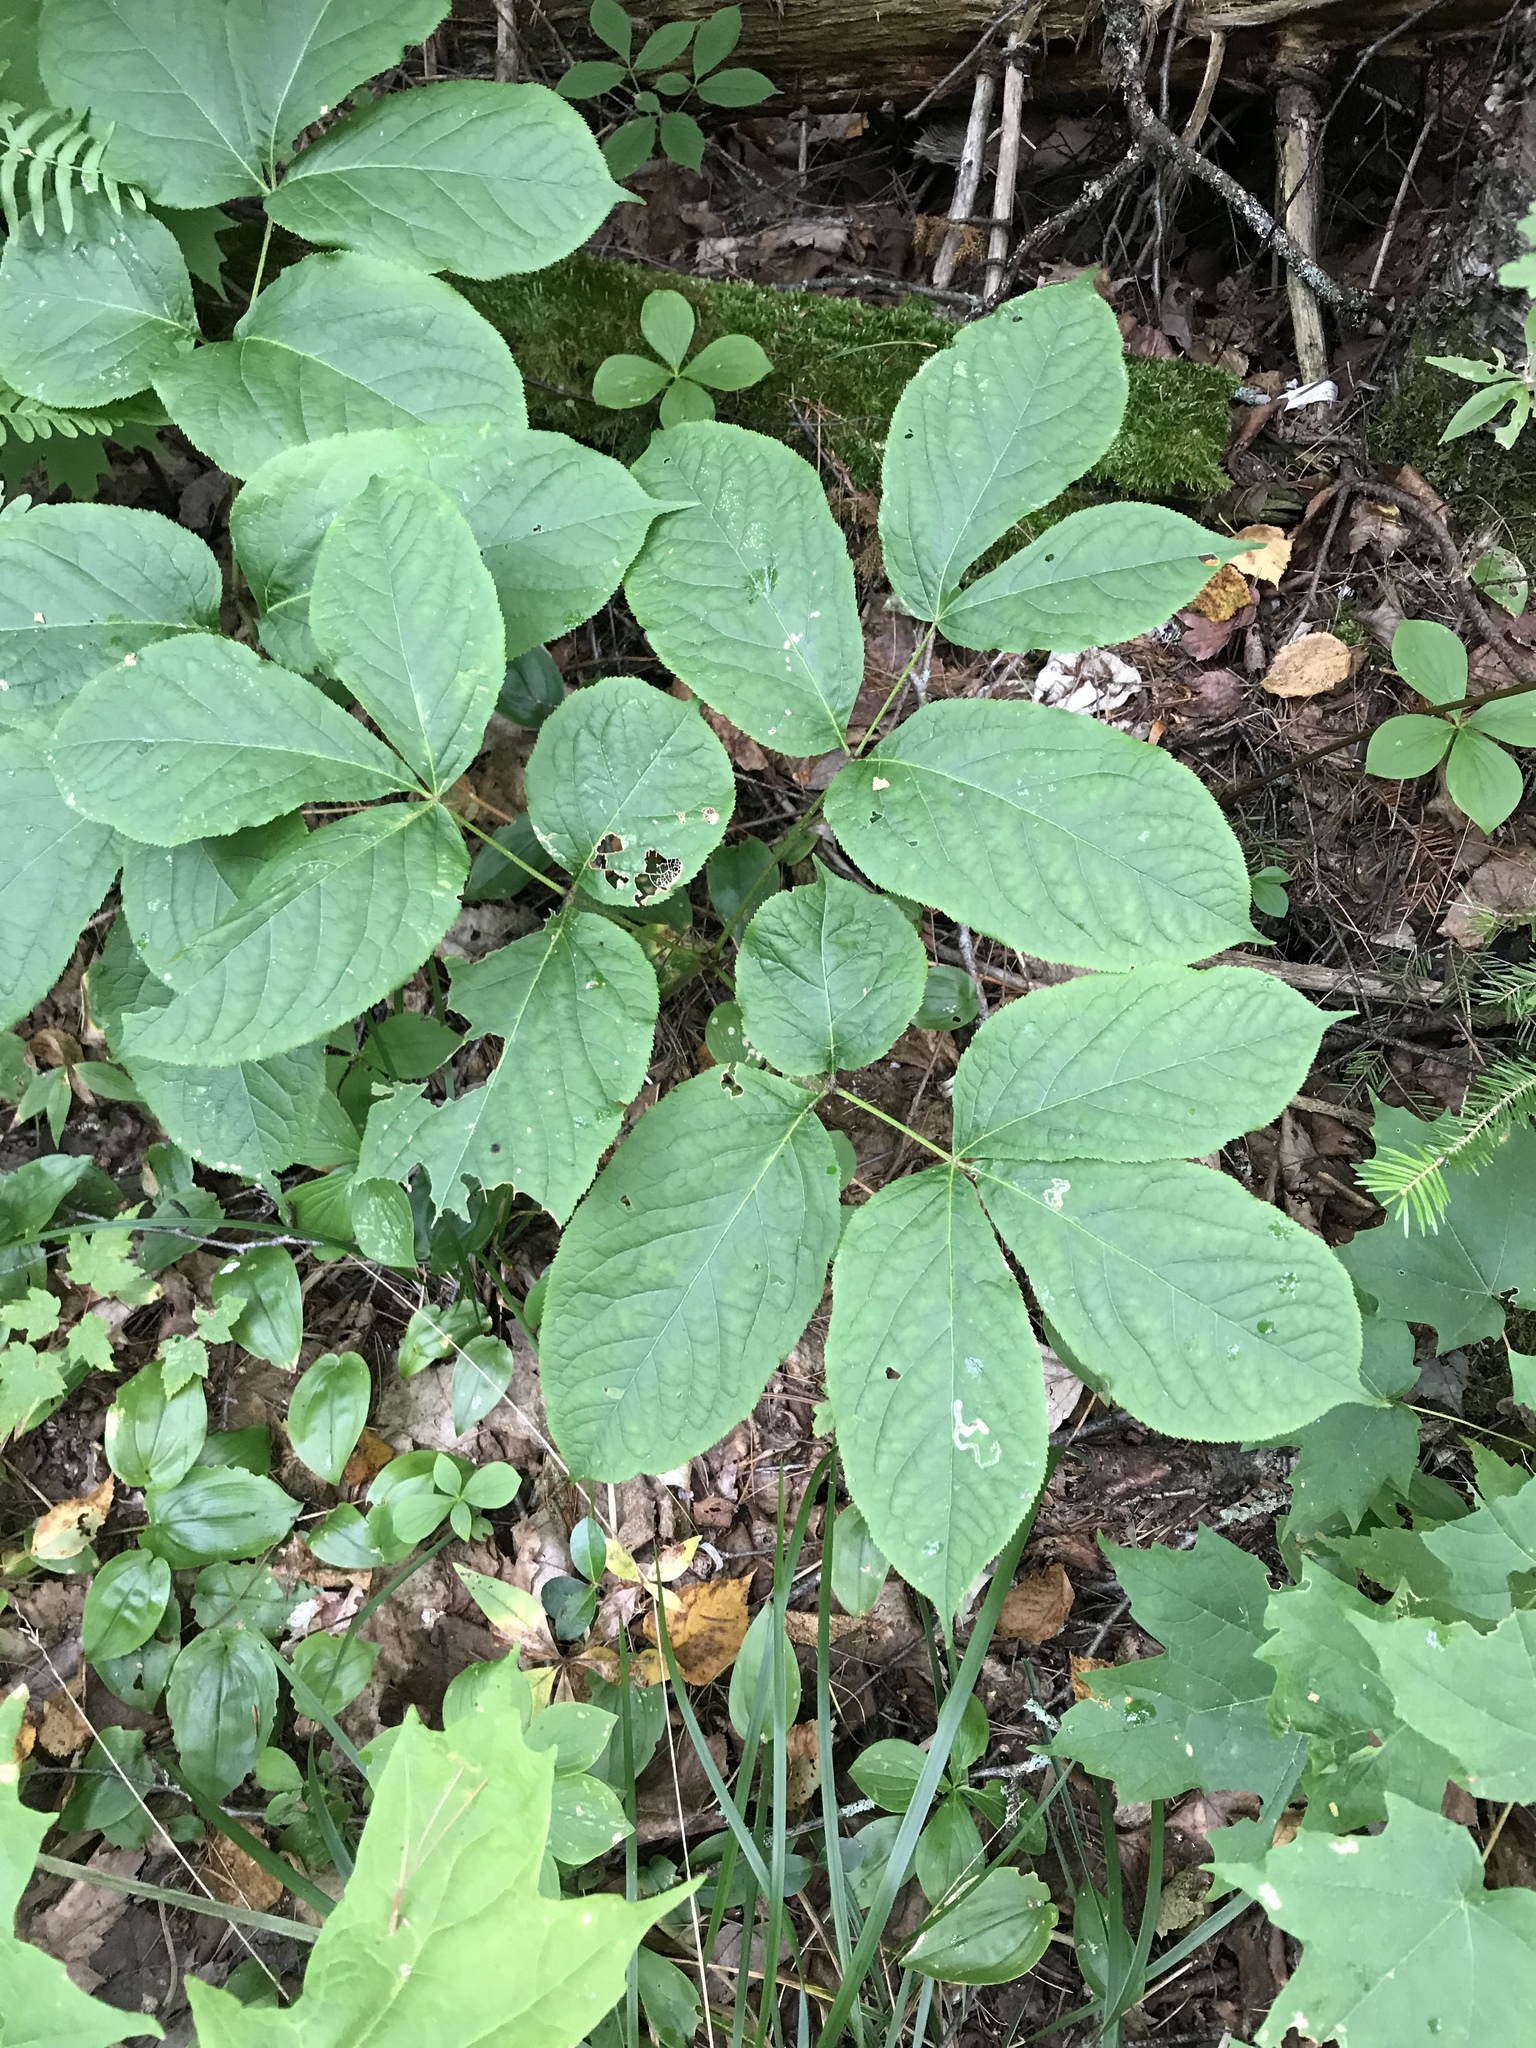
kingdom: Plantae
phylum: Tracheophyta
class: Magnoliopsida
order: Apiales
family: Araliaceae
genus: Aralia
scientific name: Aralia nudicaulis
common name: Wild sarsaparilla
